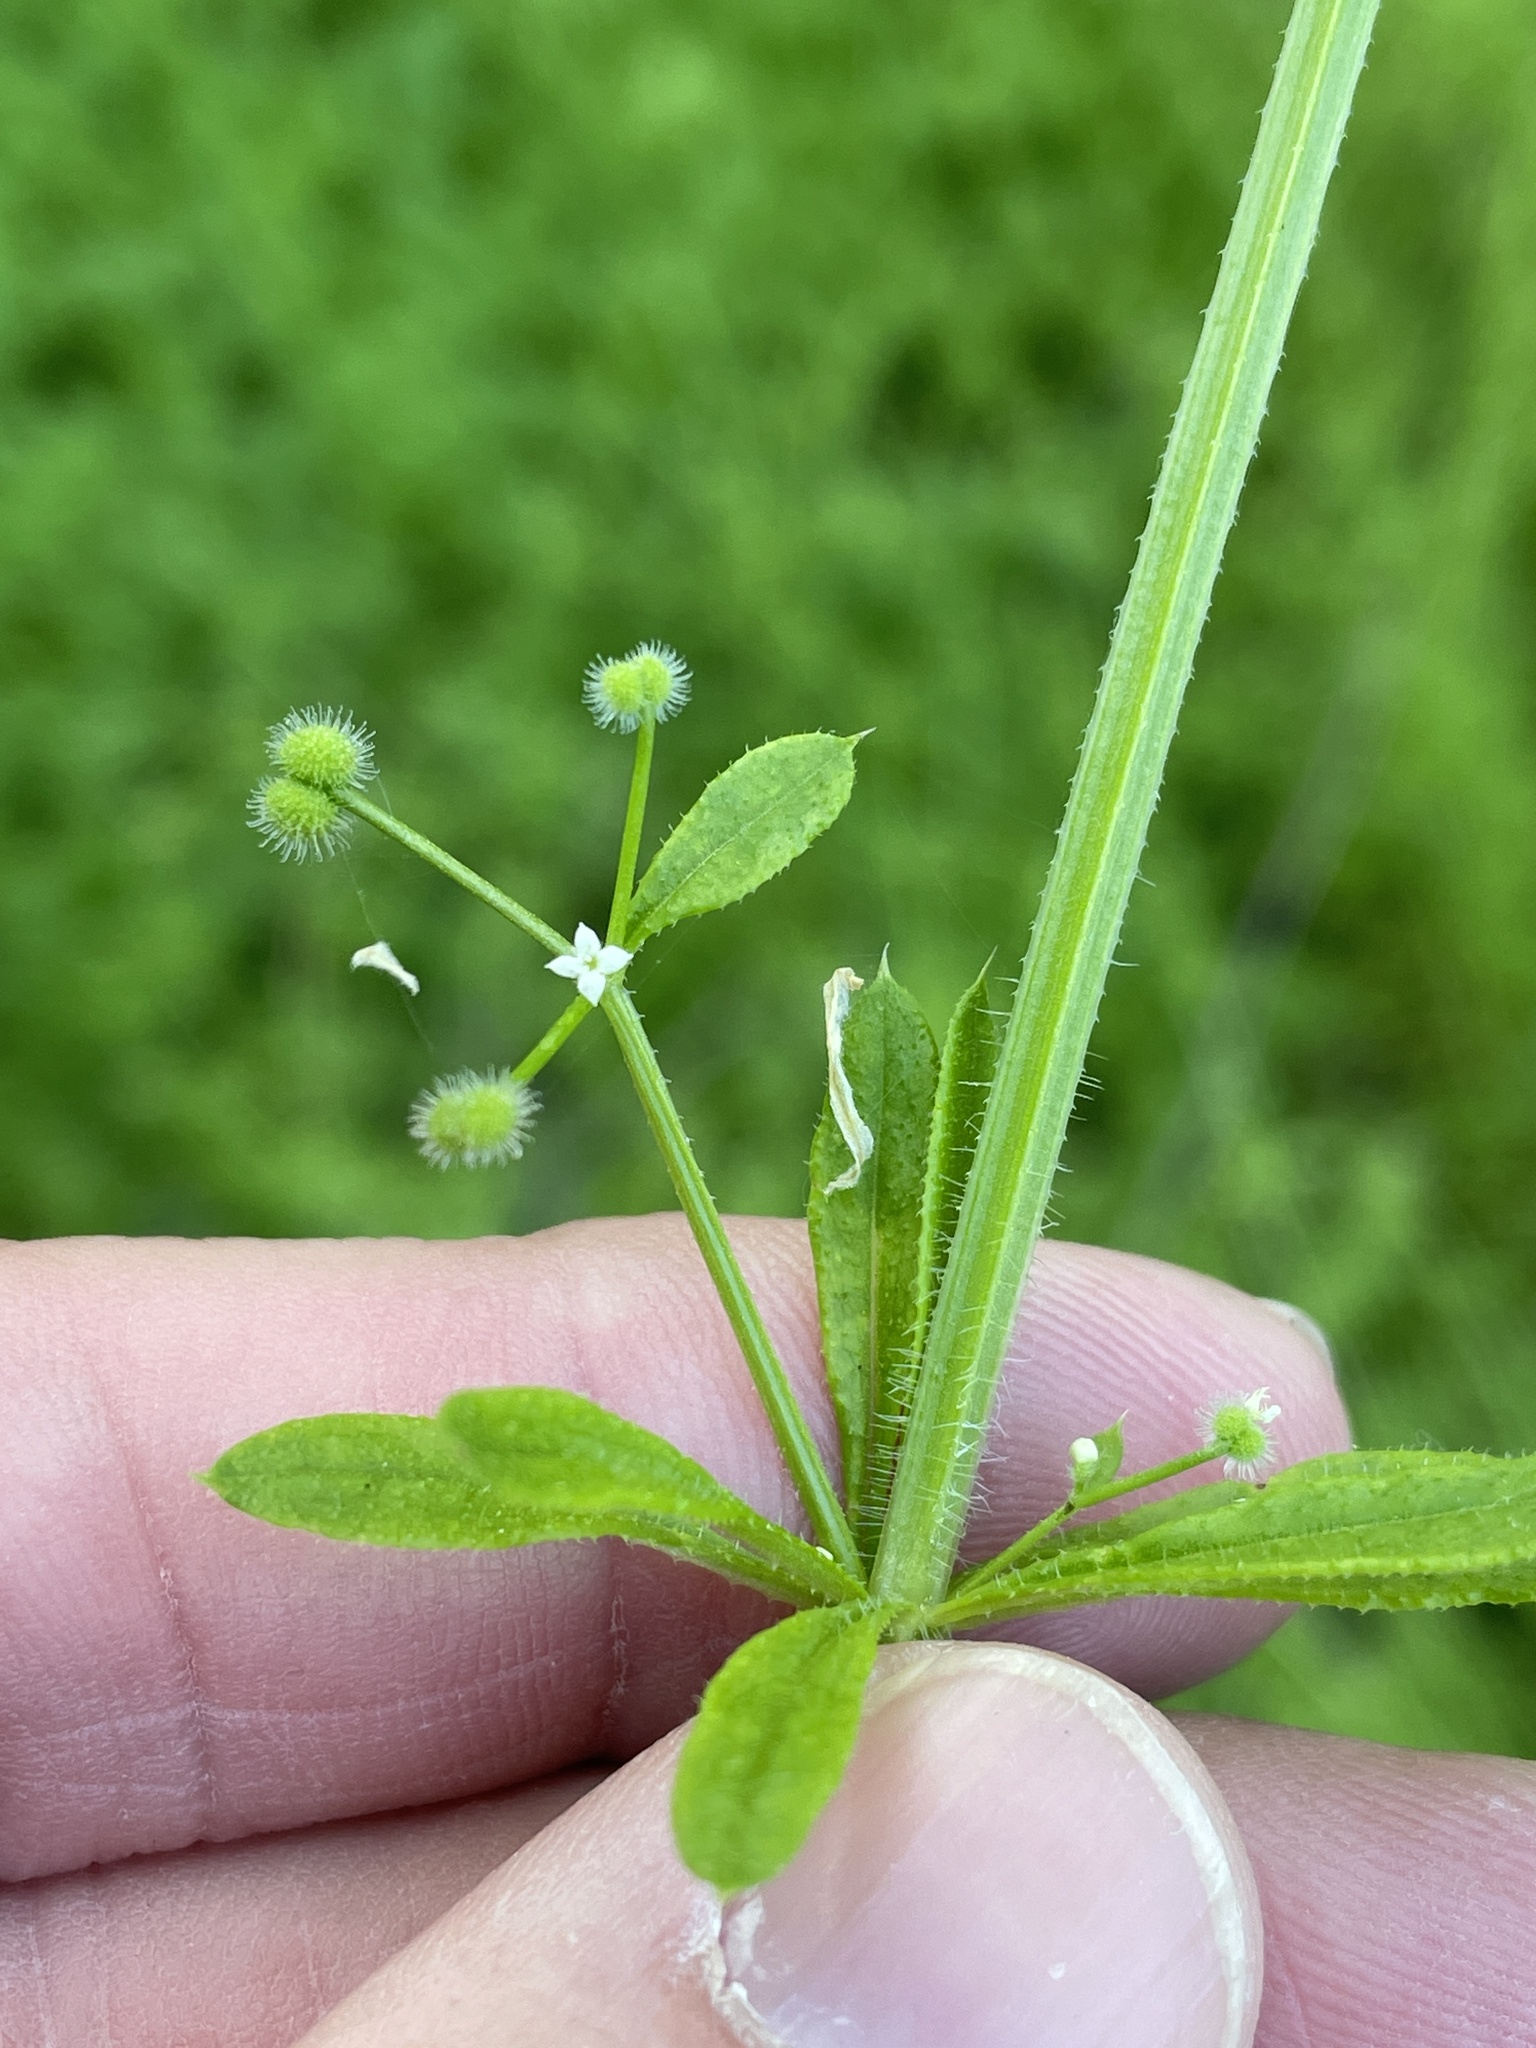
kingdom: Plantae
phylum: Tracheophyta
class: Magnoliopsida
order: Gentianales
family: Rubiaceae
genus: Galium
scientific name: Galium aparine
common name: Cleavers
